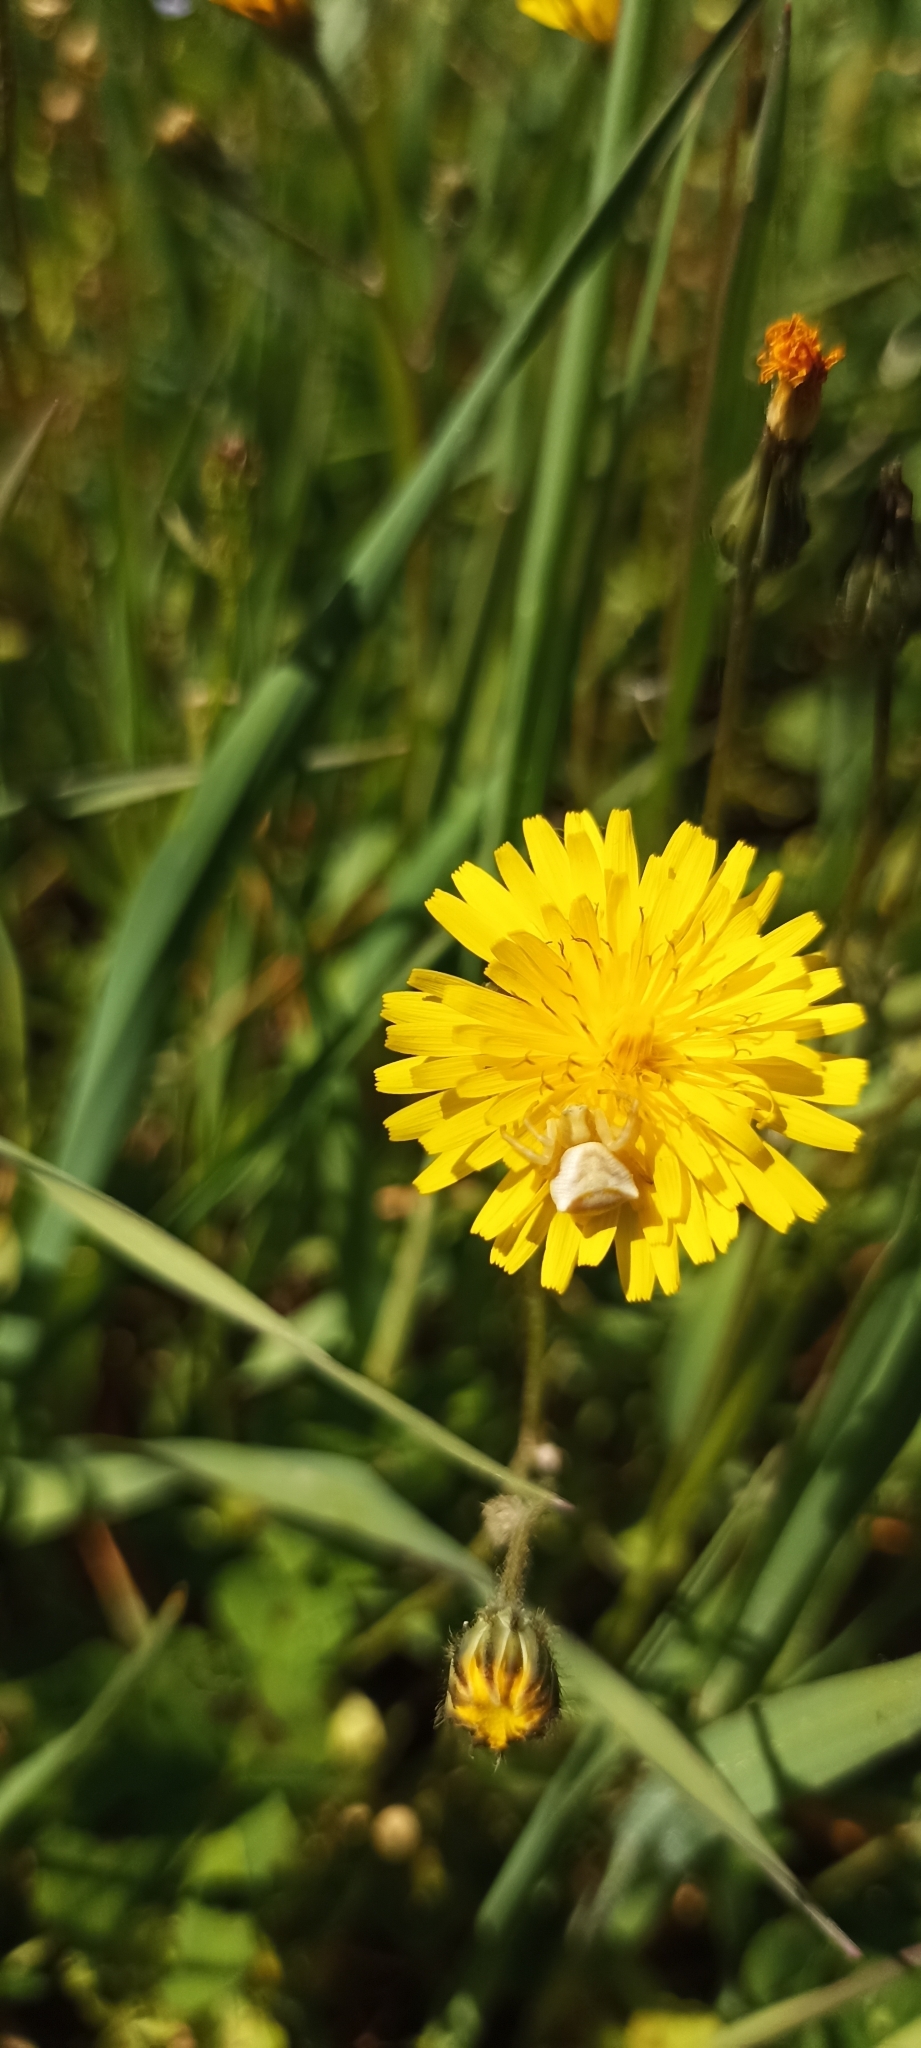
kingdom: Animalia
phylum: Arthropoda
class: Arachnida
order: Araneae
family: Thomisidae
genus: Thomisus
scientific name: Thomisus onustus
